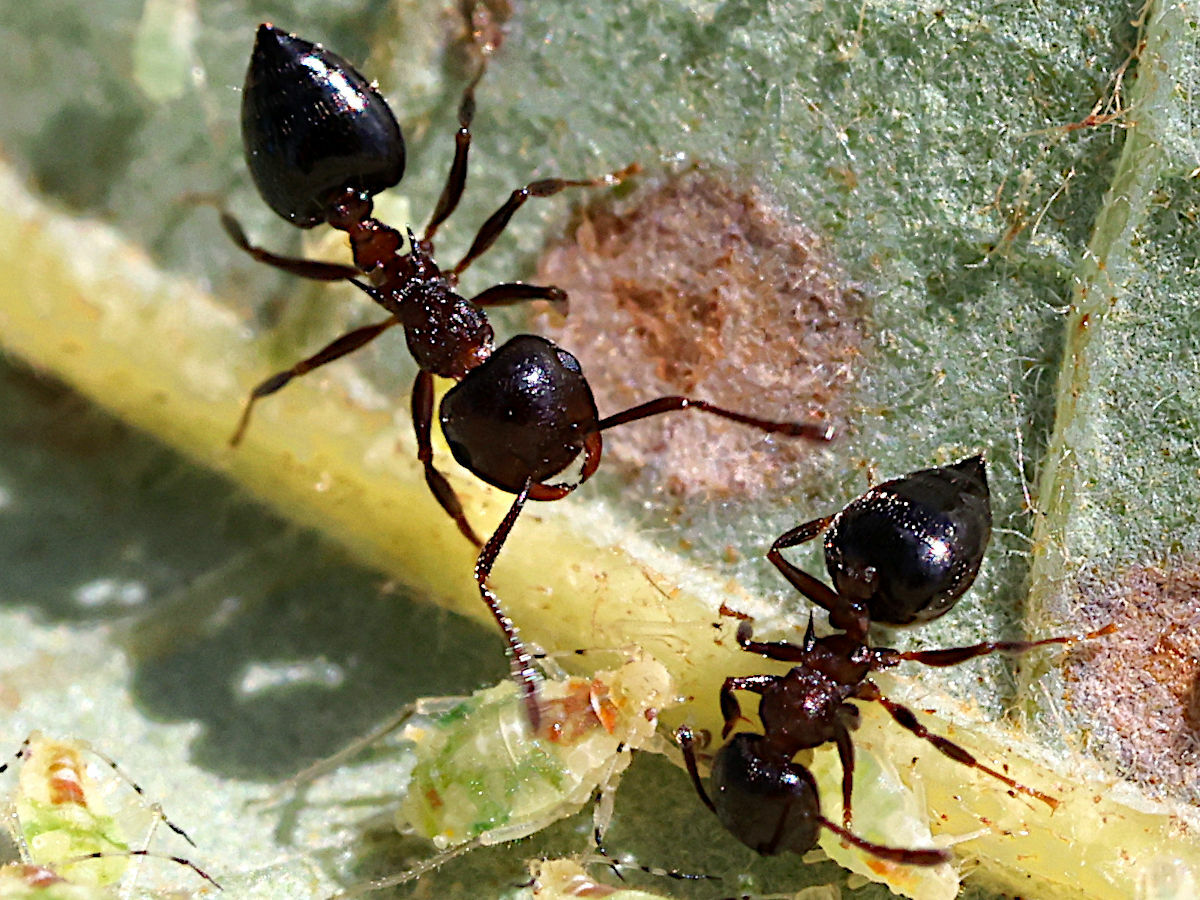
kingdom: Animalia
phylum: Arthropoda
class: Insecta
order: Hymenoptera
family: Formicidae
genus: Crematogaster
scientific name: Crematogaster cerasi
